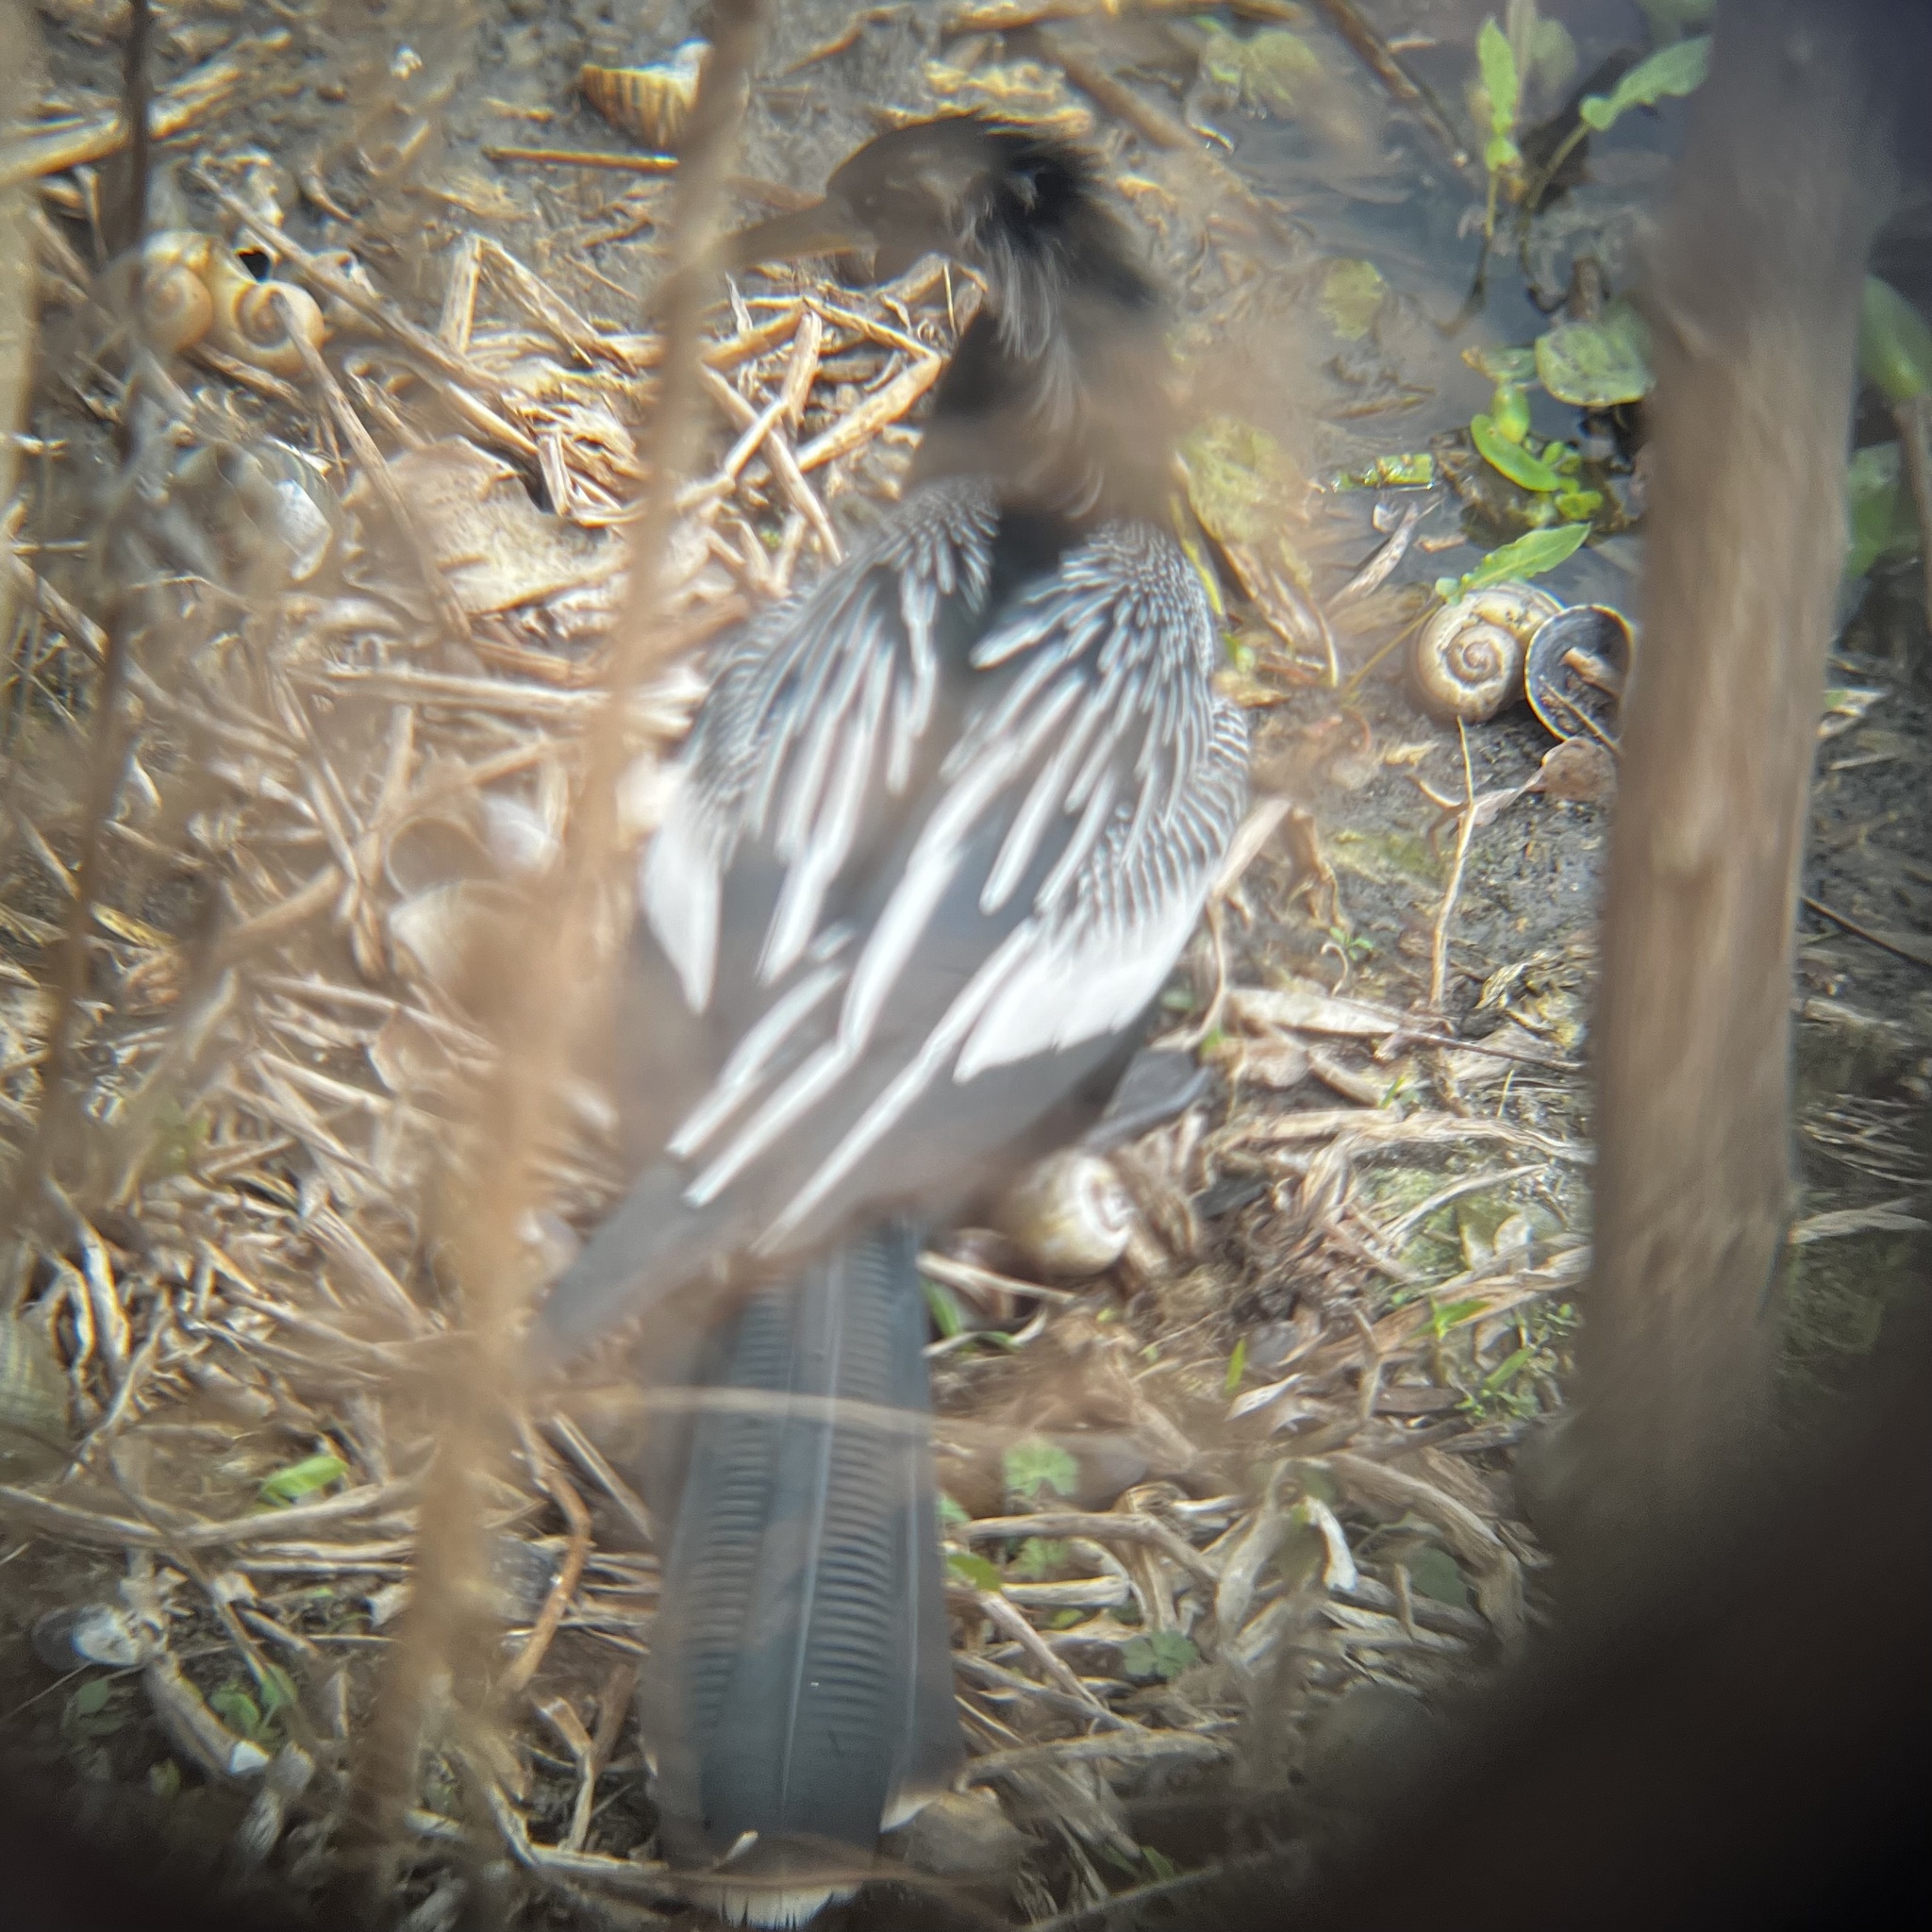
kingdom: Animalia
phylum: Chordata
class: Aves
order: Suliformes
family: Anhingidae
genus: Anhinga
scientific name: Anhinga anhinga
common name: Anhinga
